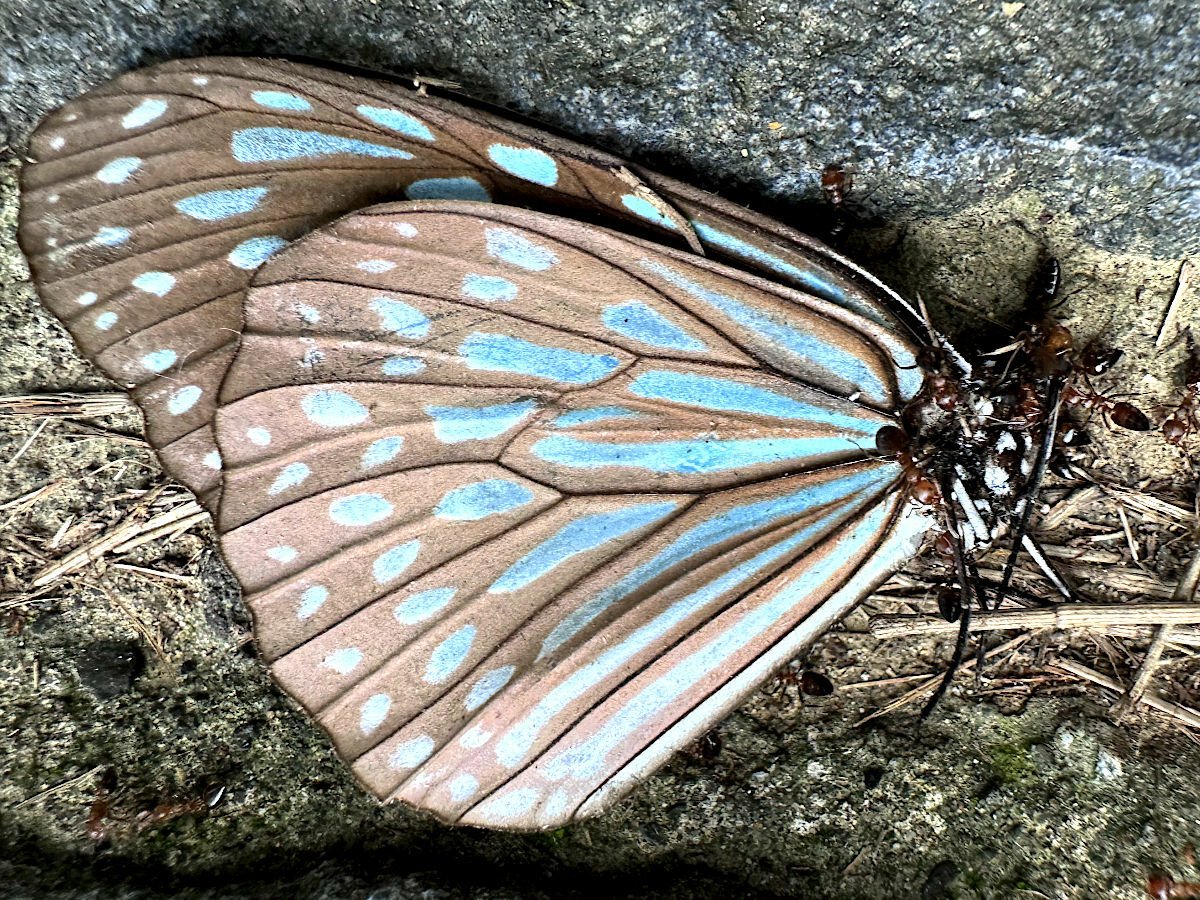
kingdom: Animalia
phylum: Arthropoda
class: Insecta
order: Lepidoptera
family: Nymphalidae
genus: Ideopsis
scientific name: Ideopsis similis
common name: Ceylon blue glassy tiger
